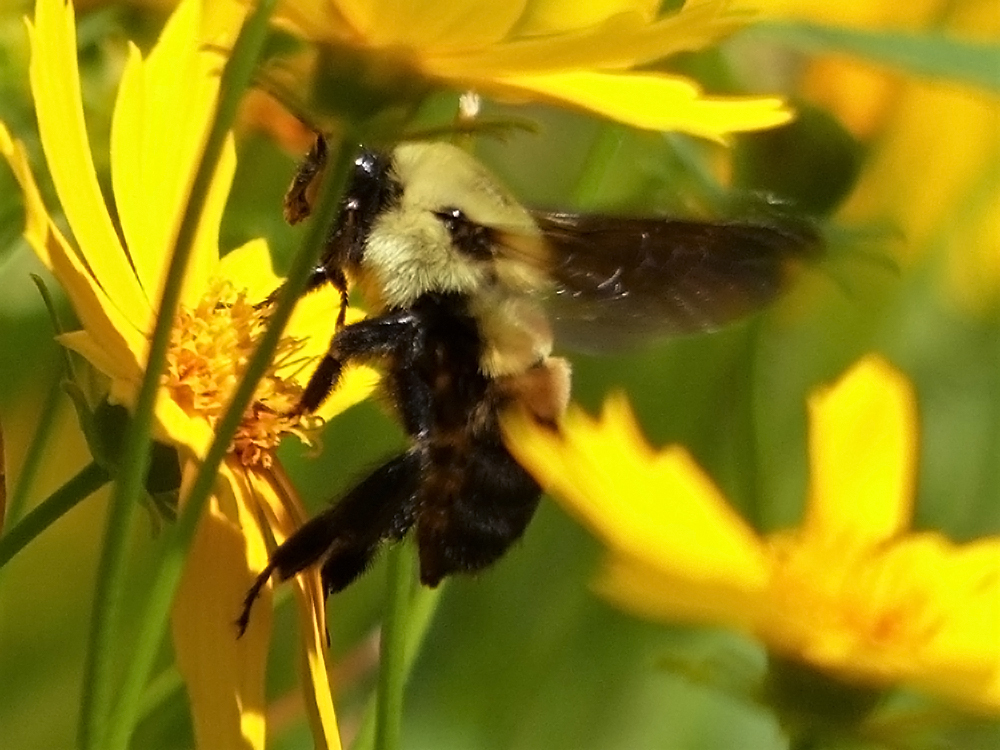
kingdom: Animalia
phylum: Arthropoda
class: Insecta
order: Hymenoptera
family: Apidae
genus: Bombus
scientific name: Bombus griseocollis
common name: Brown-belted bumble bee
